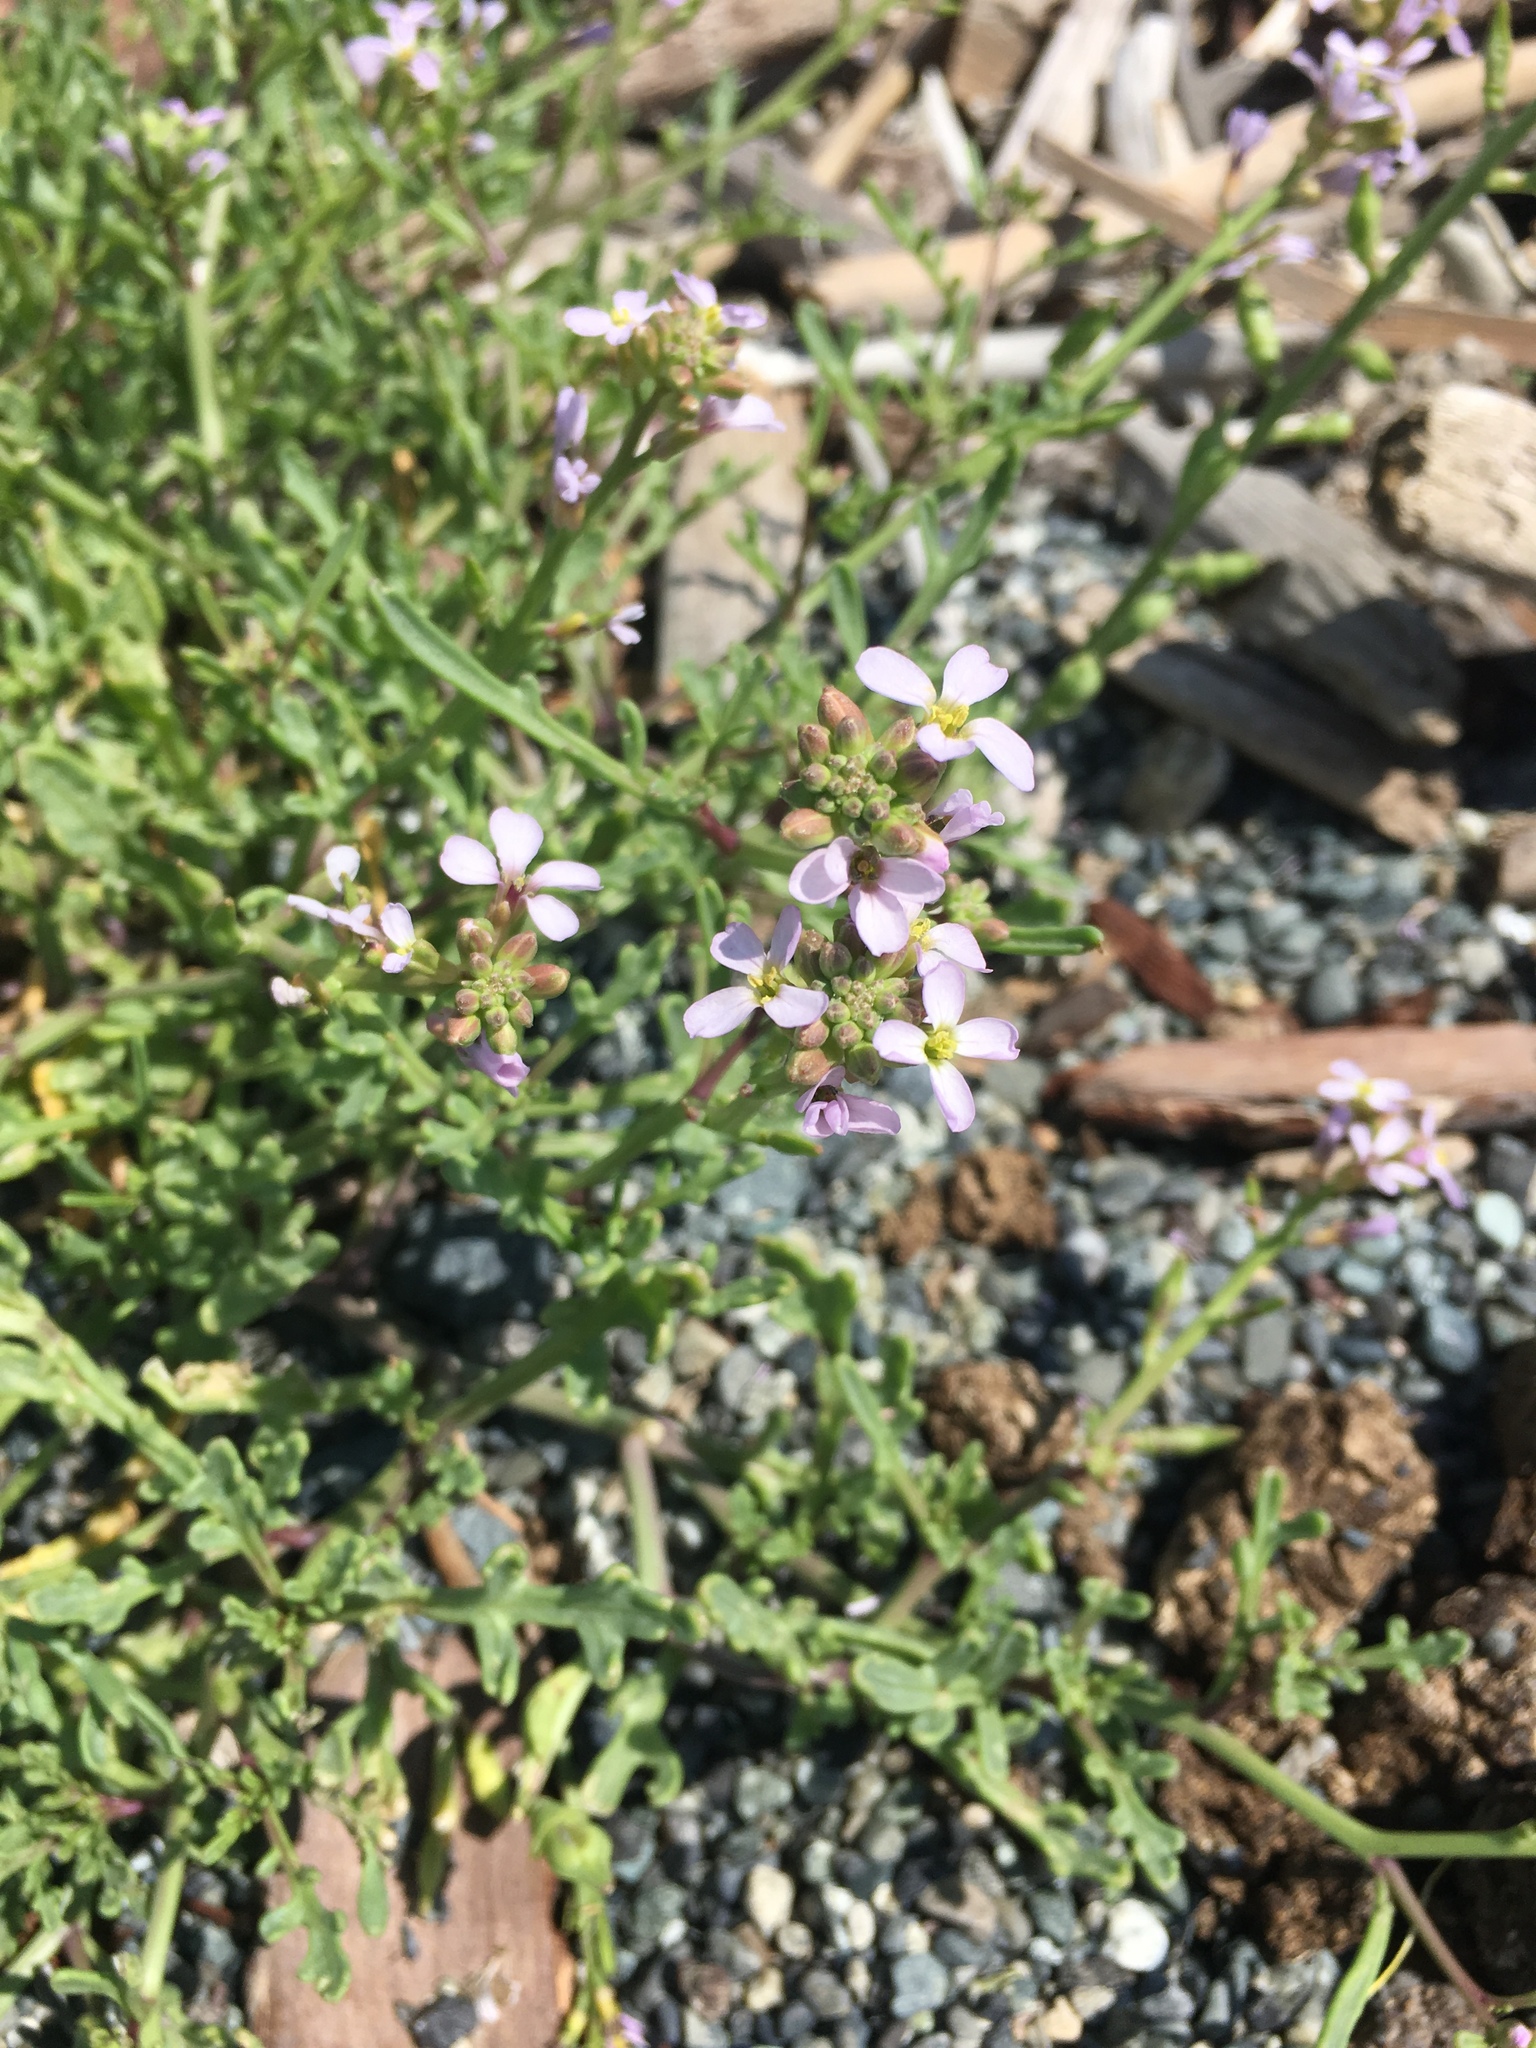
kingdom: Plantae
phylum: Tracheophyta
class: Magnoliopsida
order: Brassicales
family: Brassicaceae
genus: Cakile
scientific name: Cakile maritima
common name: Sea rocket
